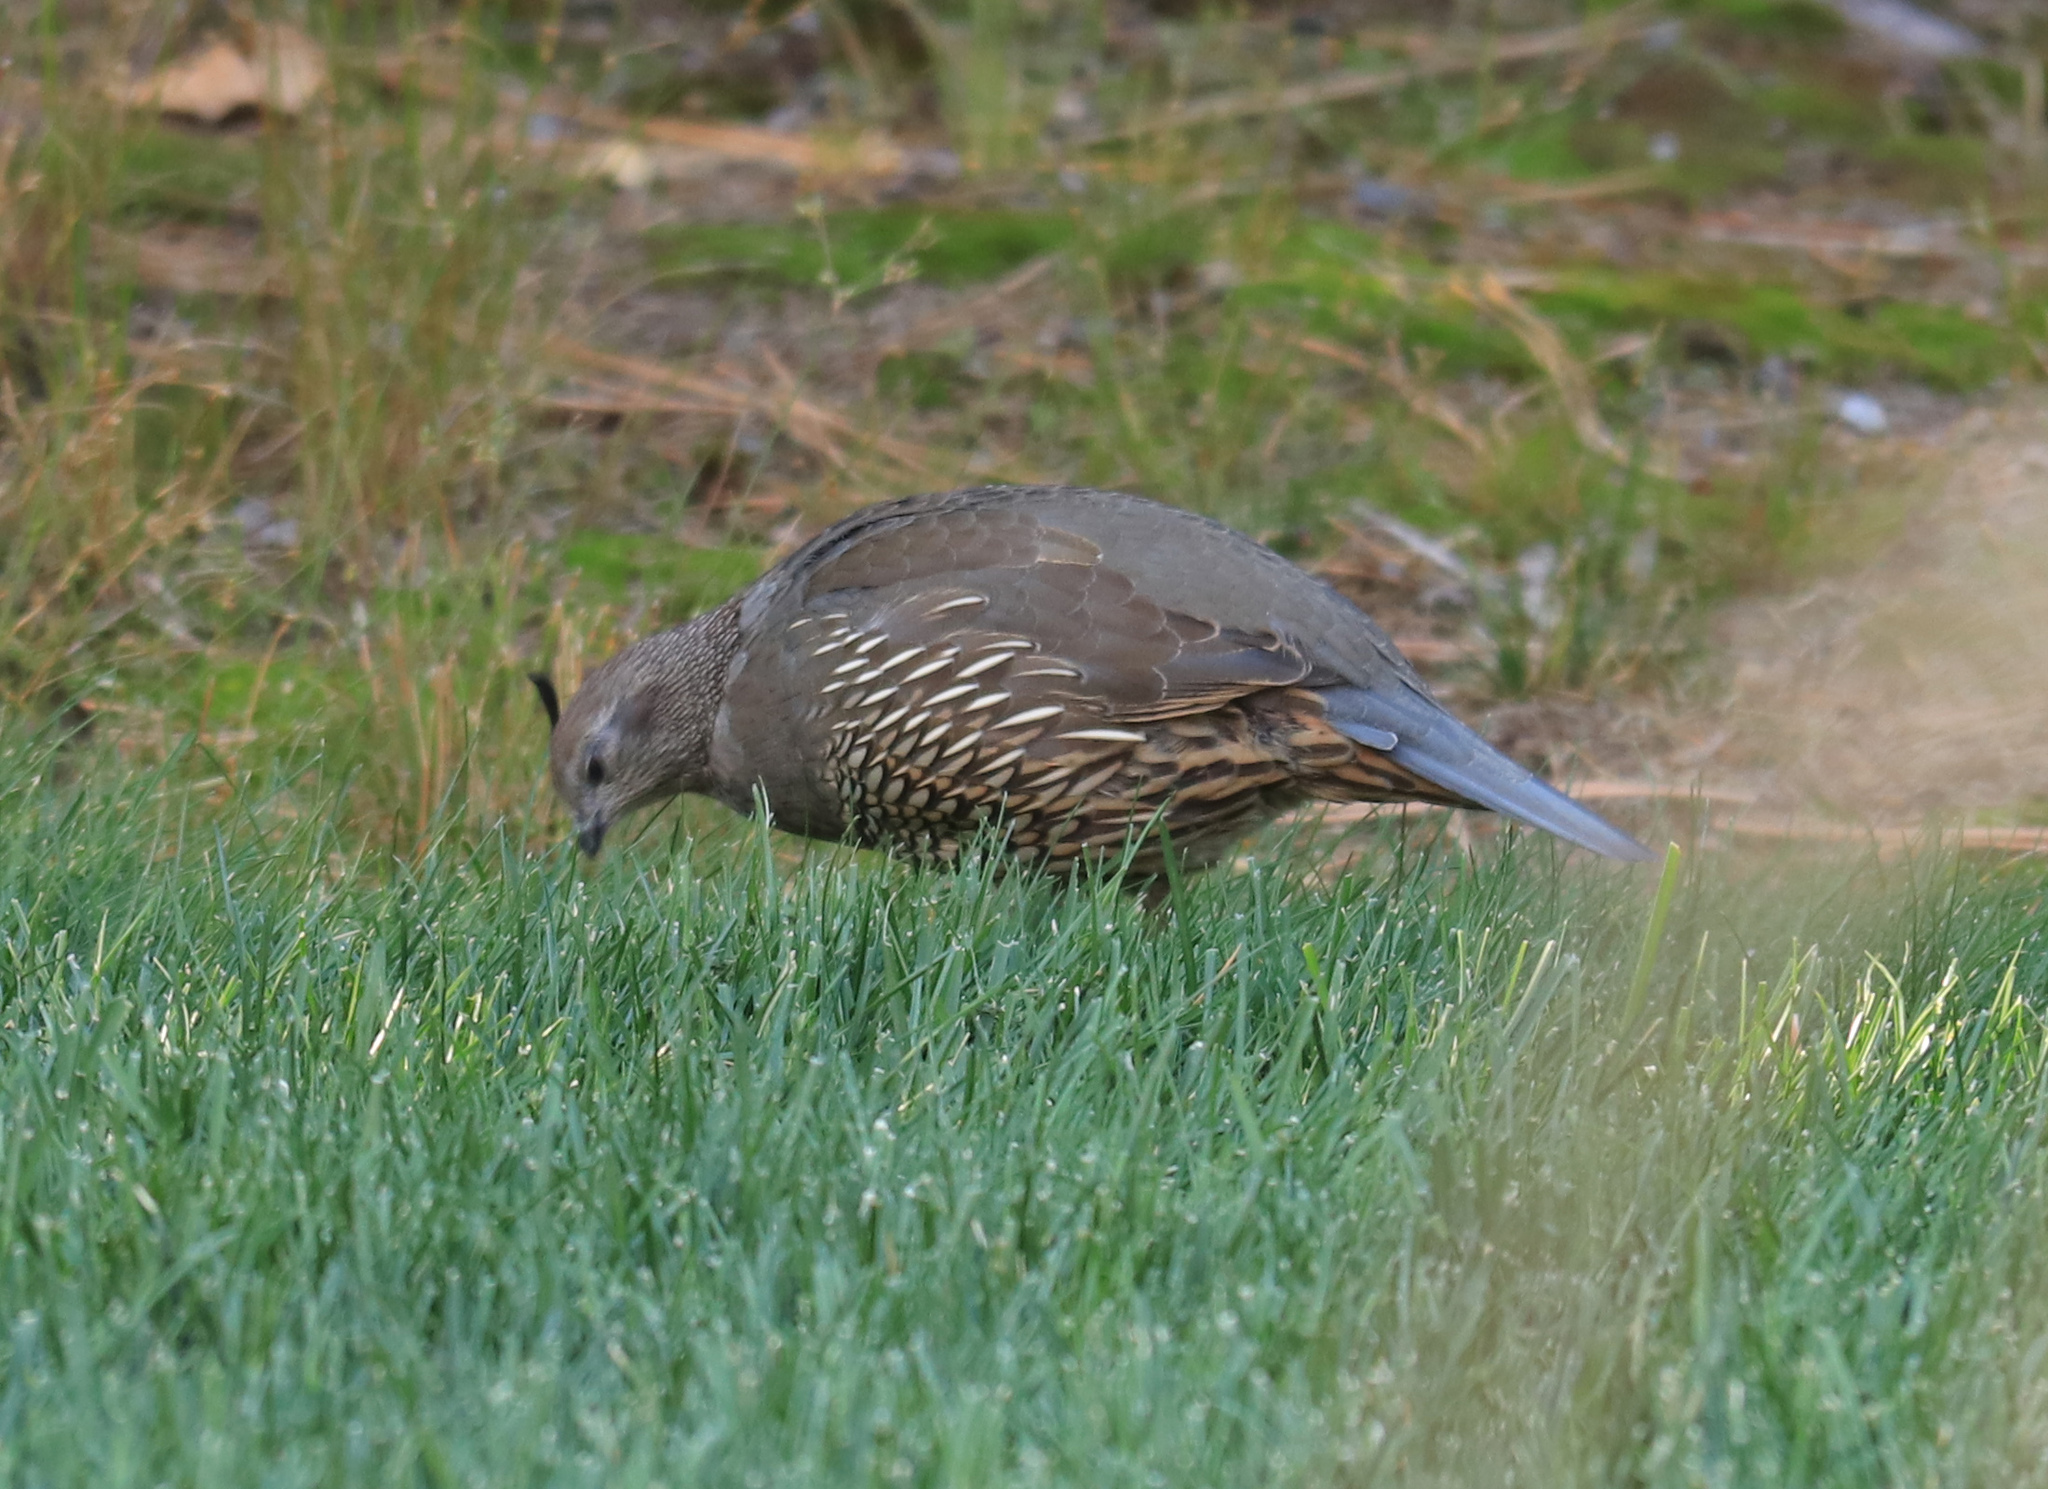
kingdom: Animalia
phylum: Chordata
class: Aves
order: Galliformes
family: Odontophoridae
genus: Callipepla
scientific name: Callipepla californica
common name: California quail
